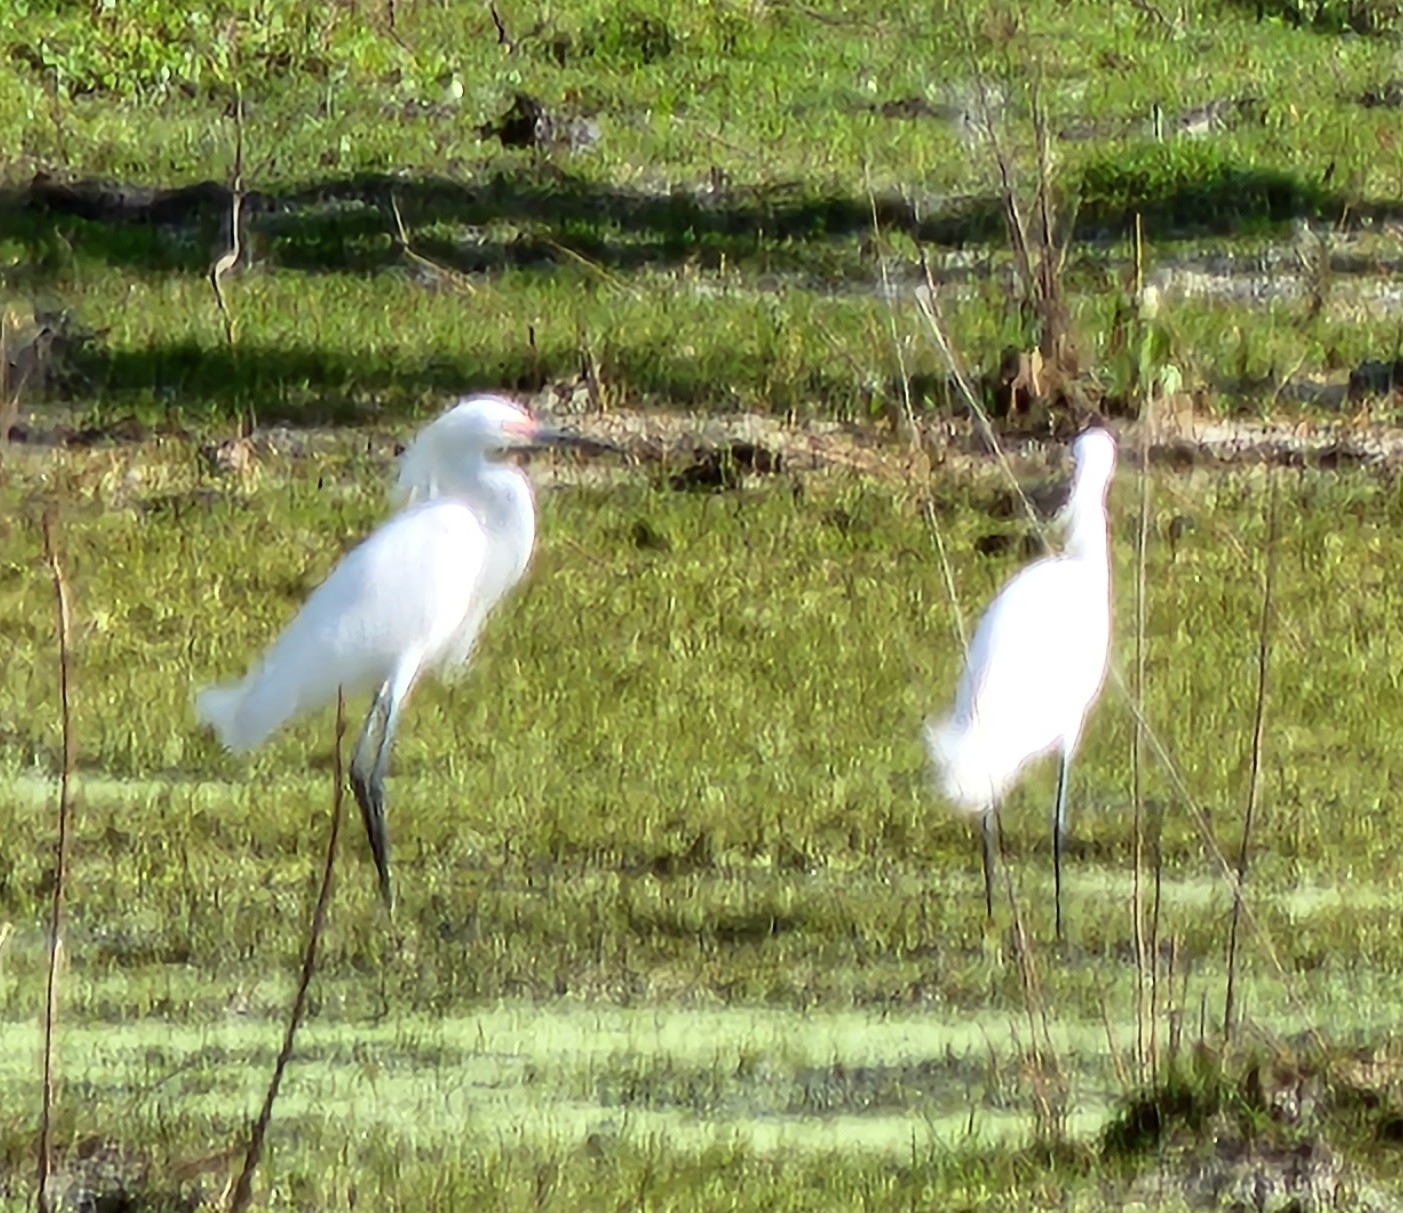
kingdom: Animalia
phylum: Chordata
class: Aves
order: Pelecaniformes
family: Ardeidae
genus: Egretta
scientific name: Egretta thula
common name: Snowy egret
